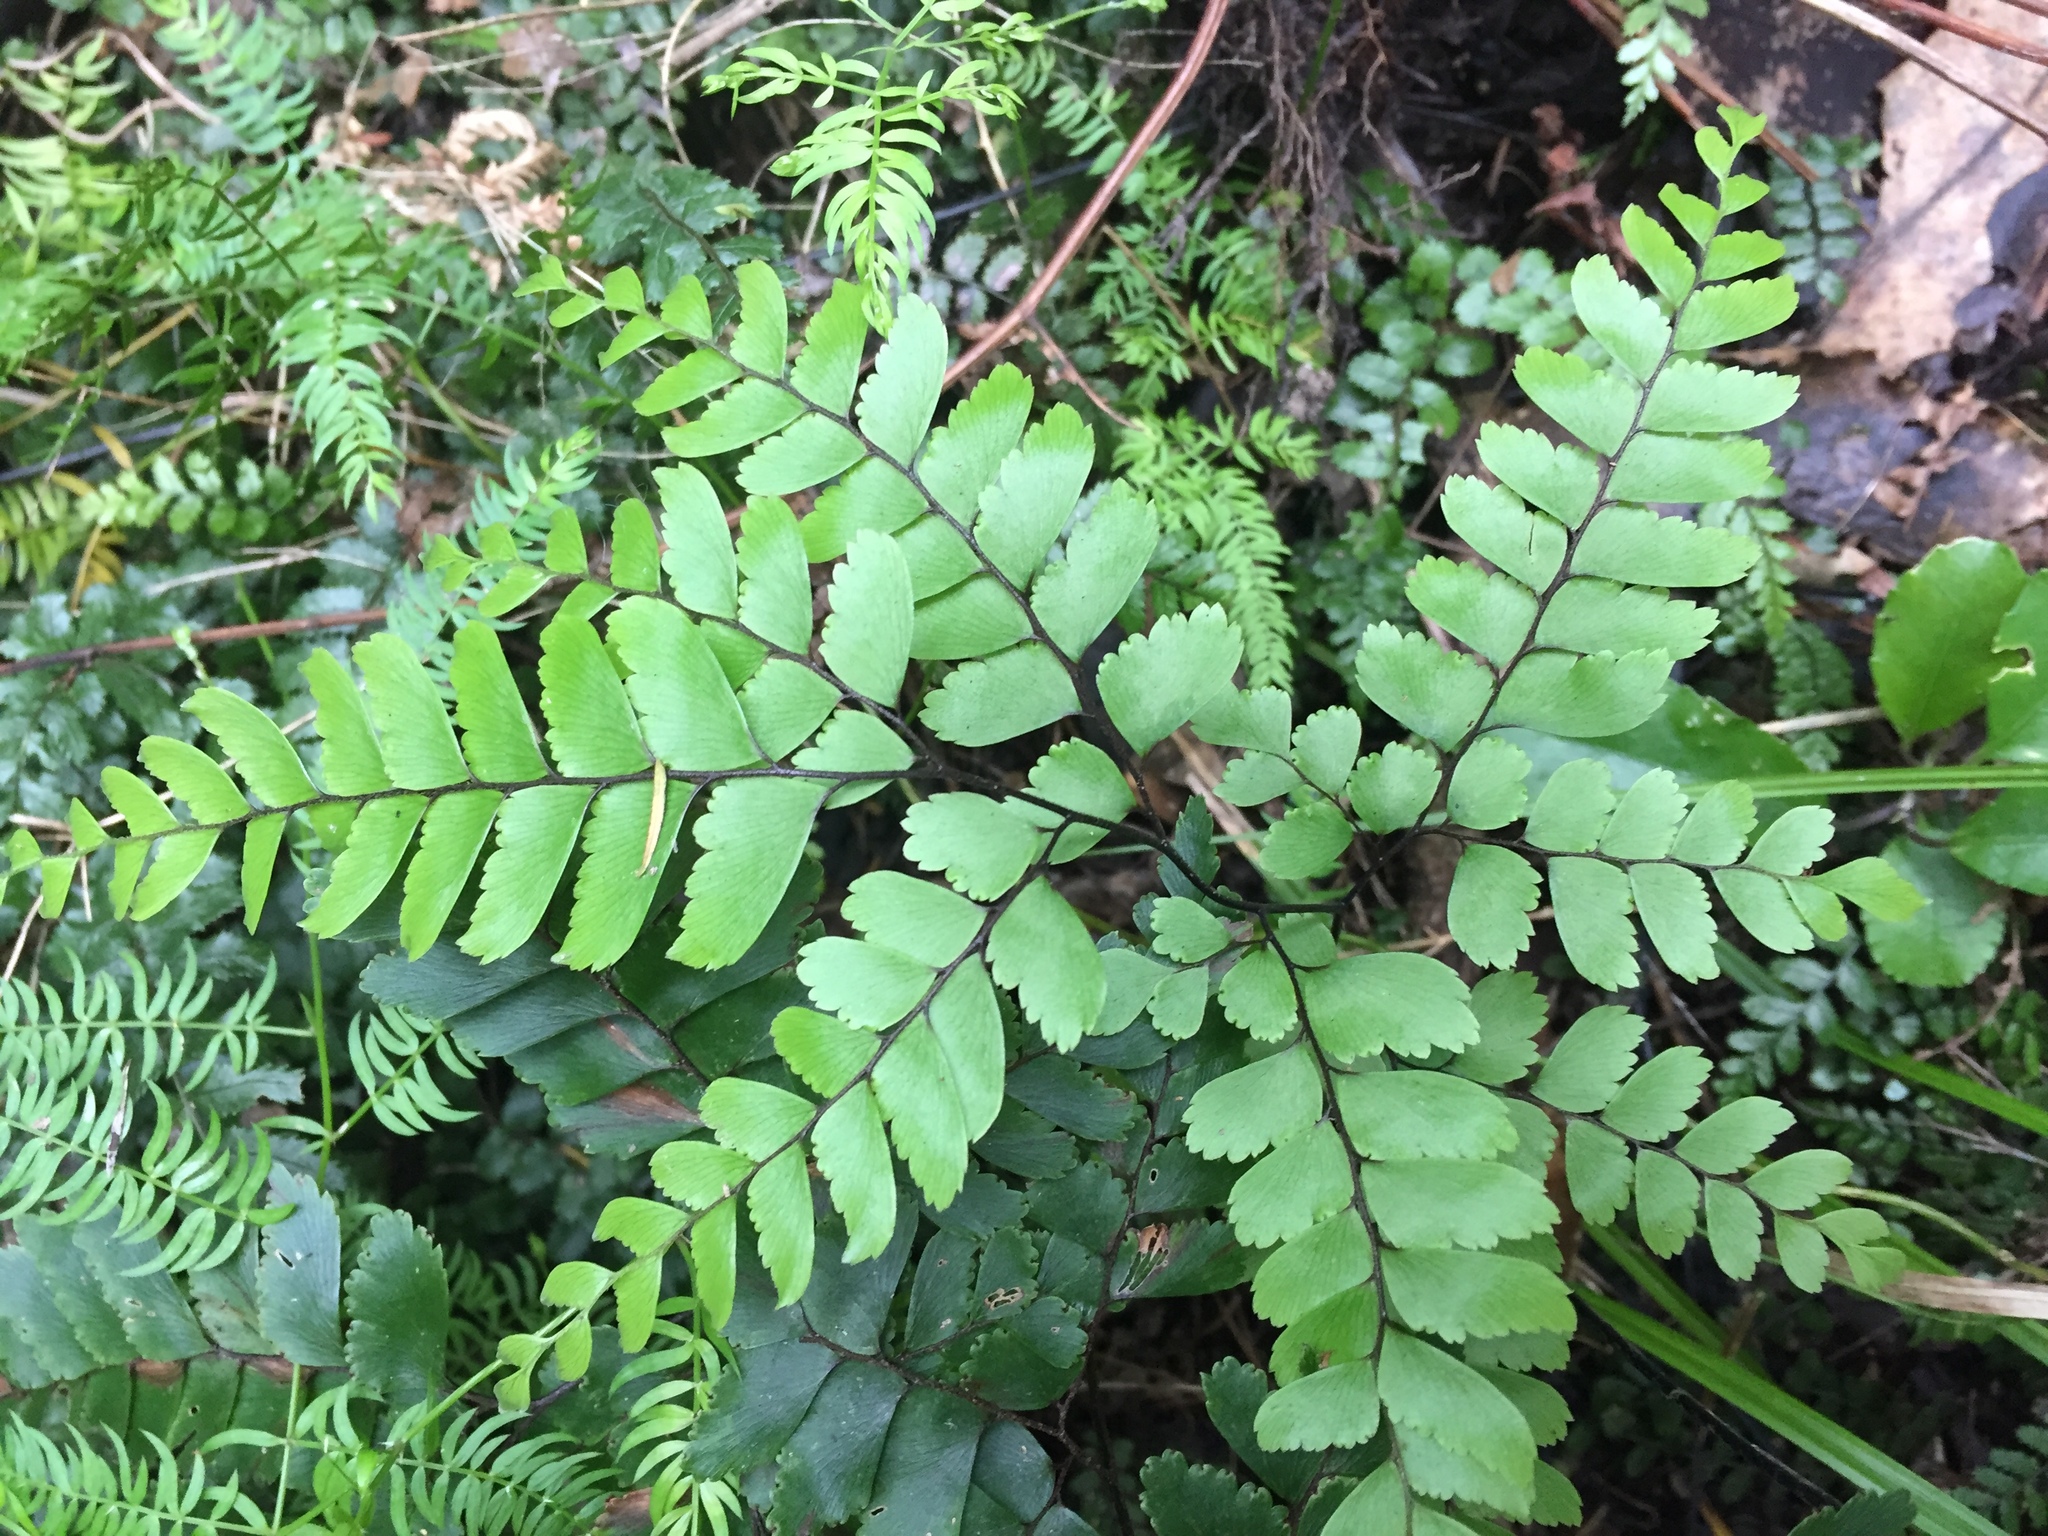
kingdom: Plantae
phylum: Tracheophyta
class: Polypodiopsida
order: Polypodiales
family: Pteridaceae
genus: Adiantum
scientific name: Adiantum cunninghamii
